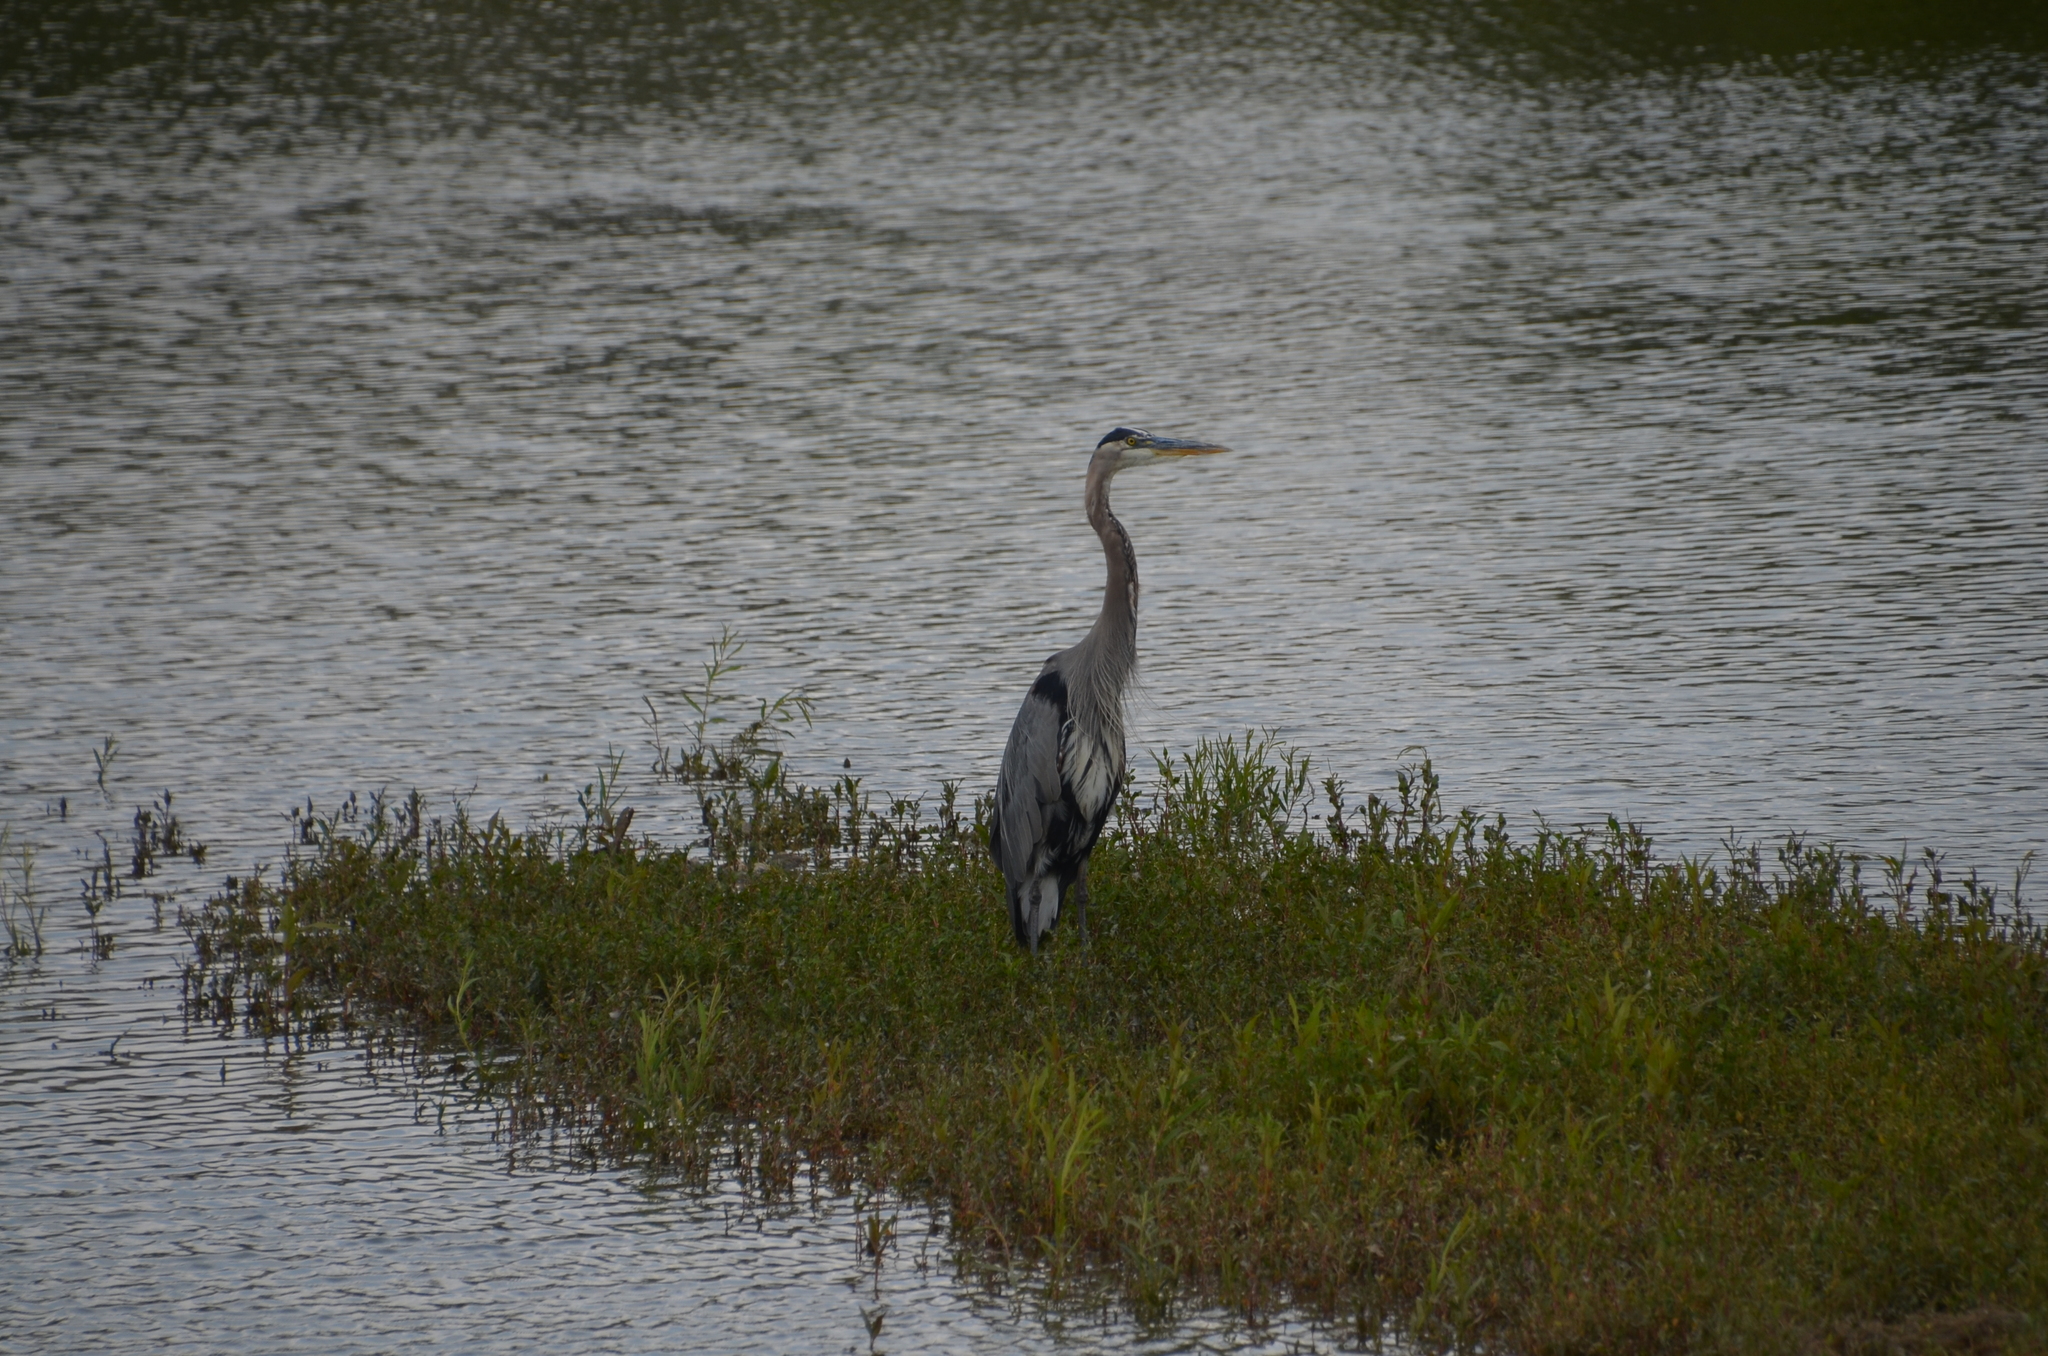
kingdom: Animalia
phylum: Chordata
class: Aves
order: Pelecaniformes
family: Ardeidae
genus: Ardea
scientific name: Ardea herodias
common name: Great blue heron
